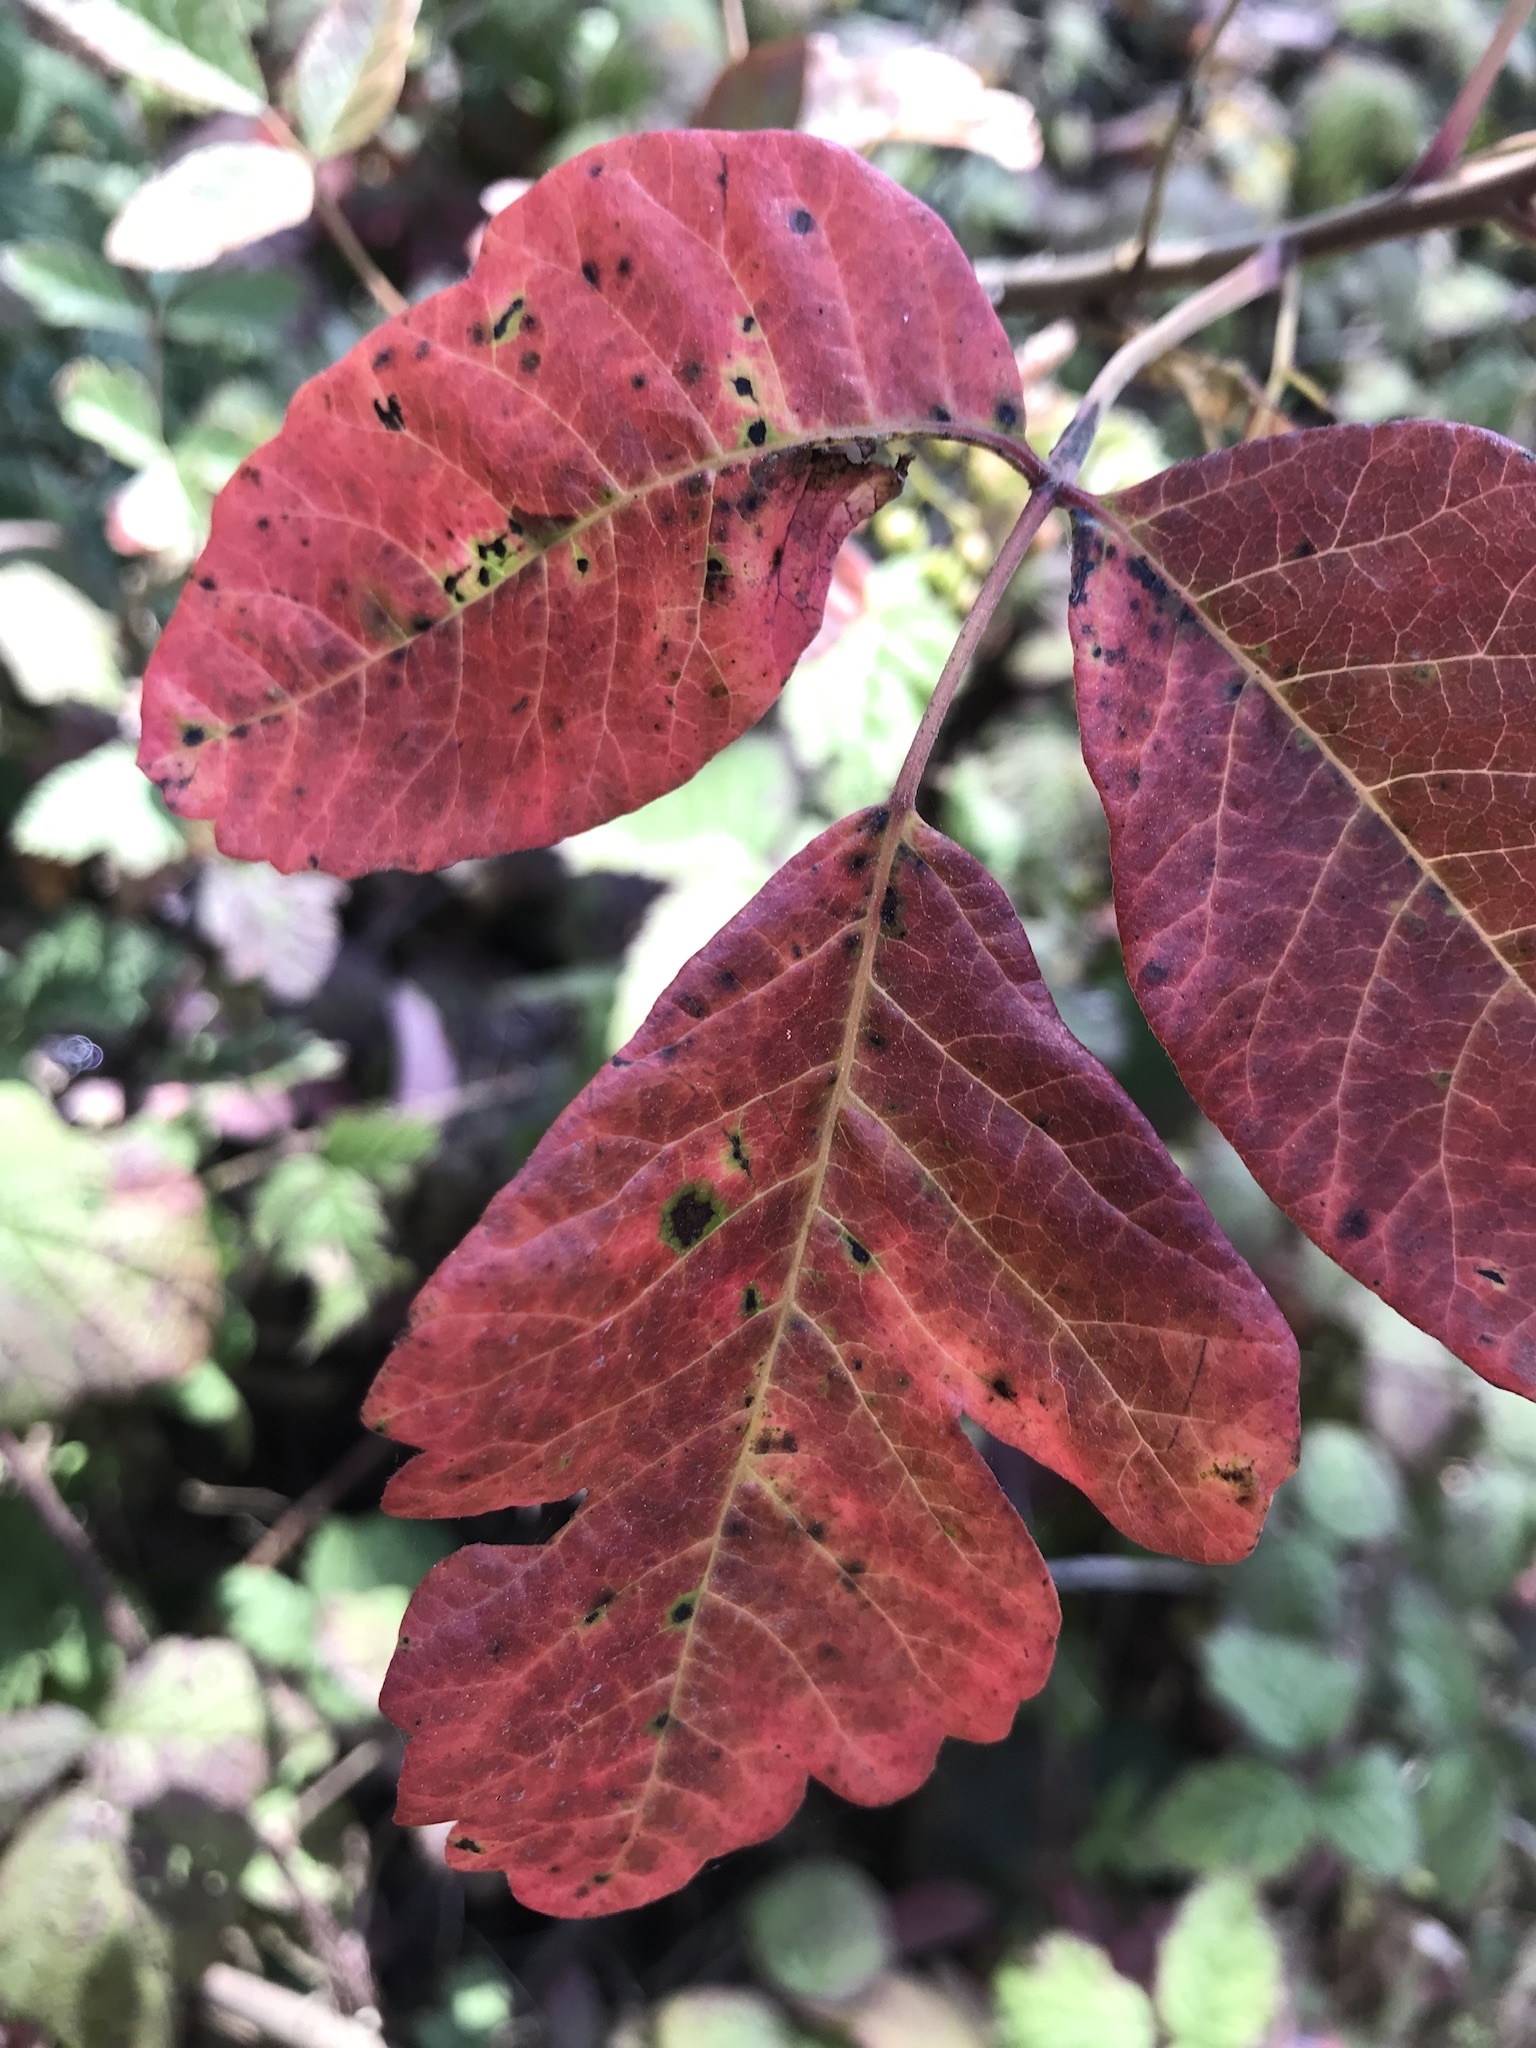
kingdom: Plantae
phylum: Tracheophyta
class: Magnoliopsida
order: Sapindales
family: Anacardiaceae
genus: Toxicodendron
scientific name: Toxicodendron diversilobum
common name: Pacific poison-oak
